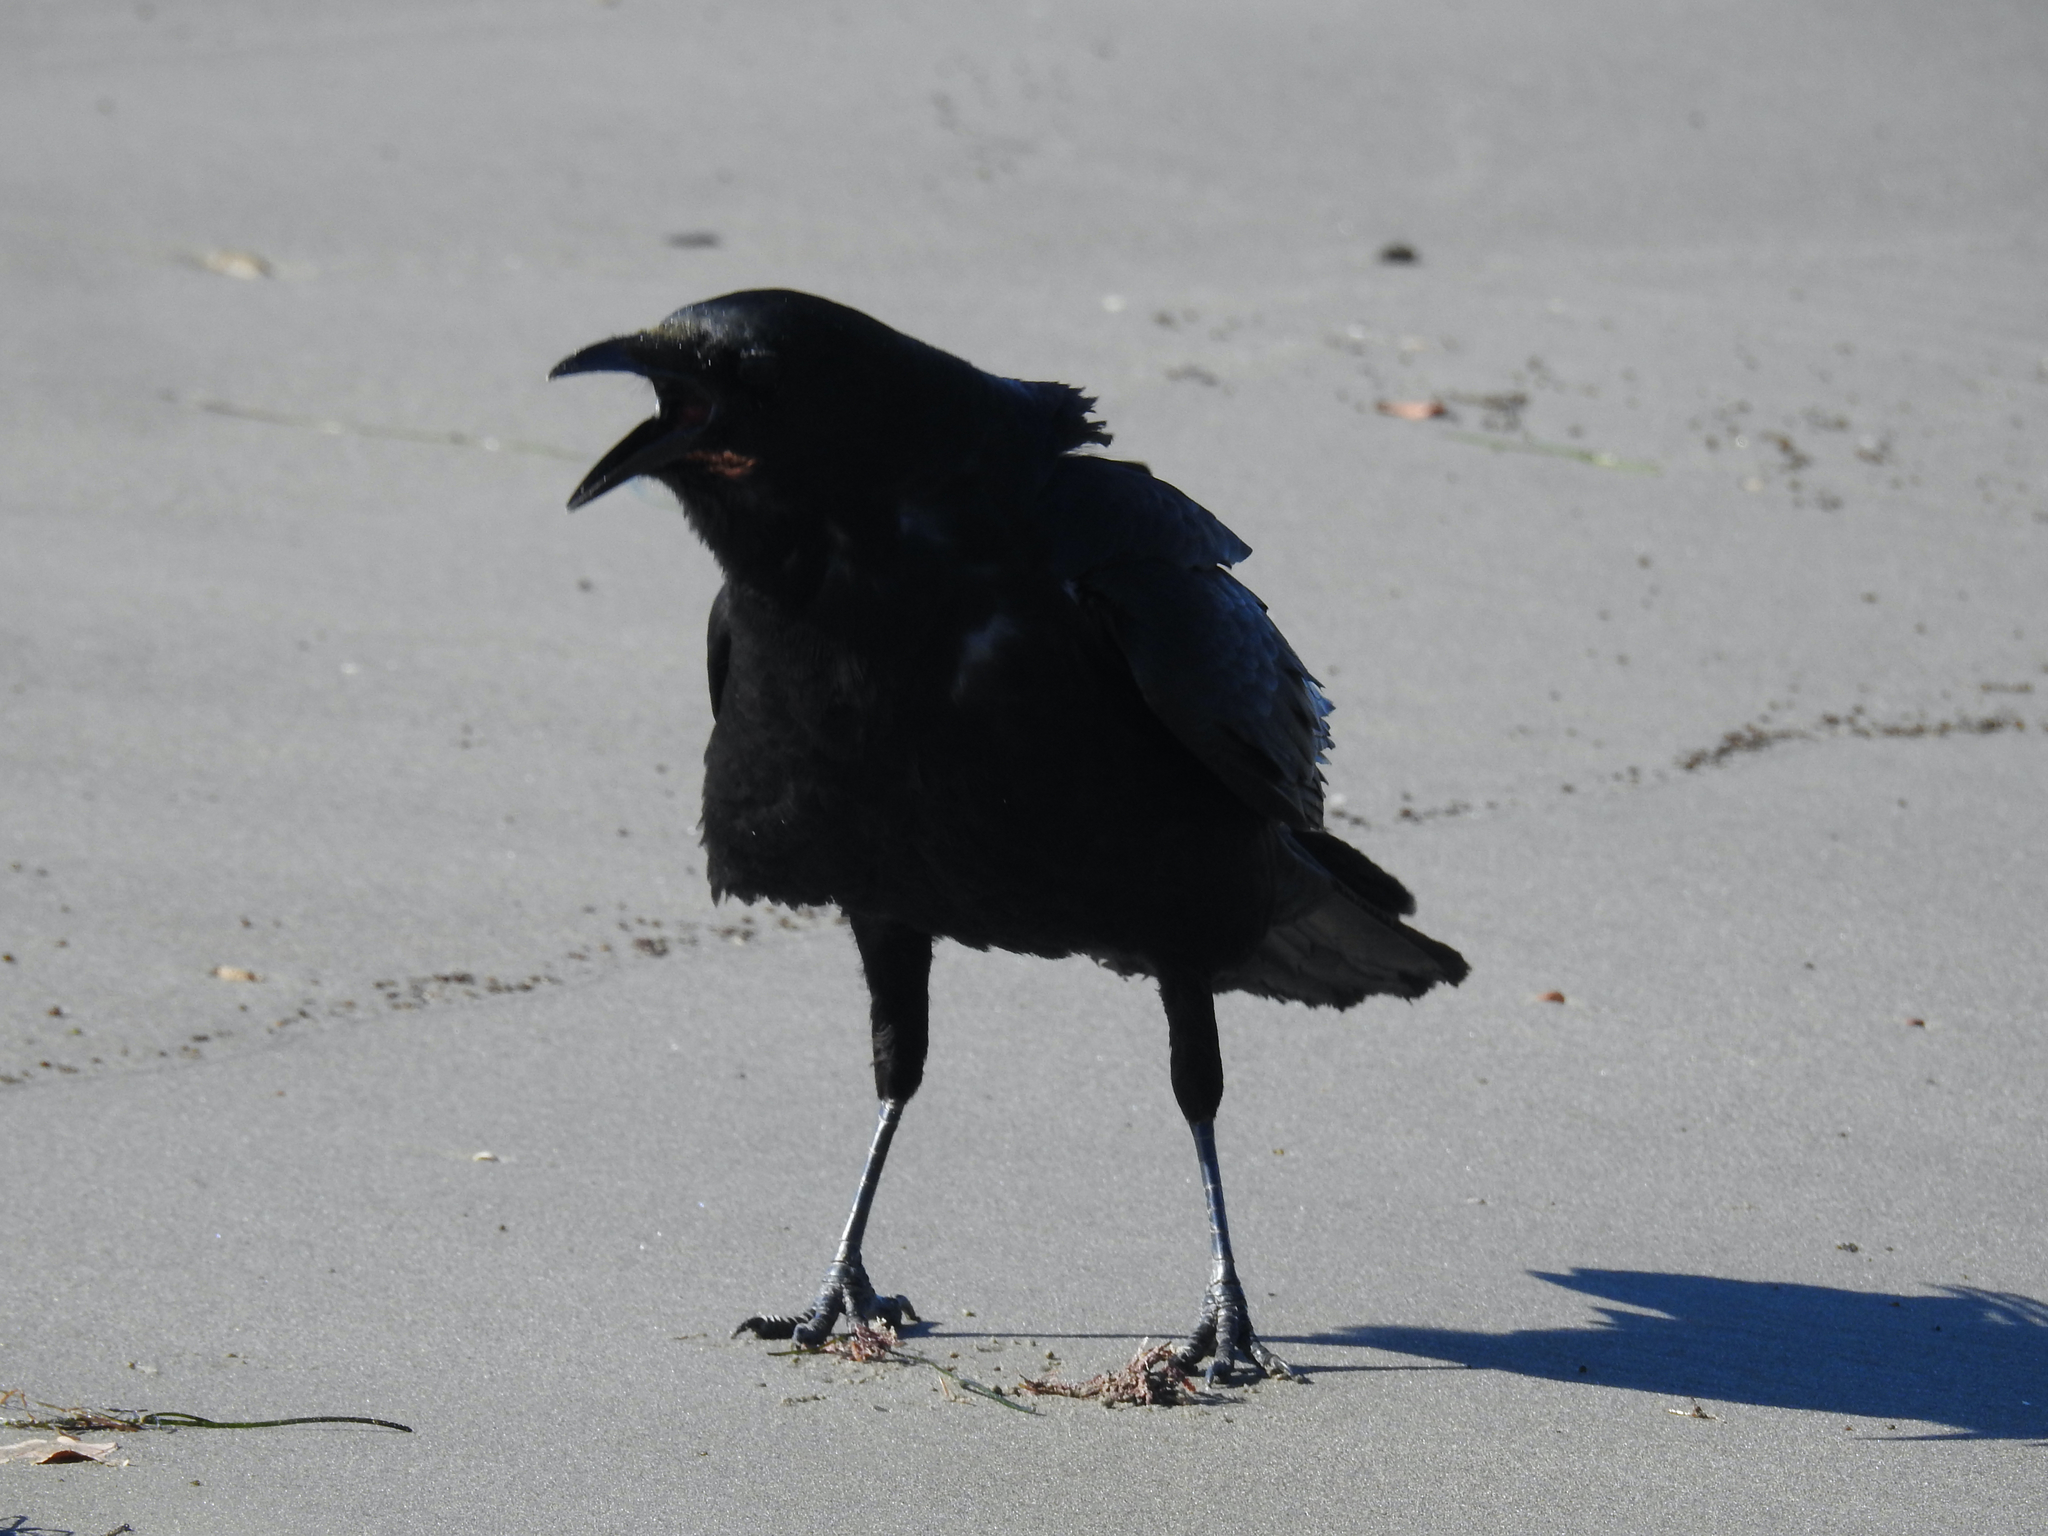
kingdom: Animalia
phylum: Chordata
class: Aves
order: Passeriformes
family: Corvidae
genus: Corvus
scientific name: Corvus brachyrhynchos
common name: American crow
